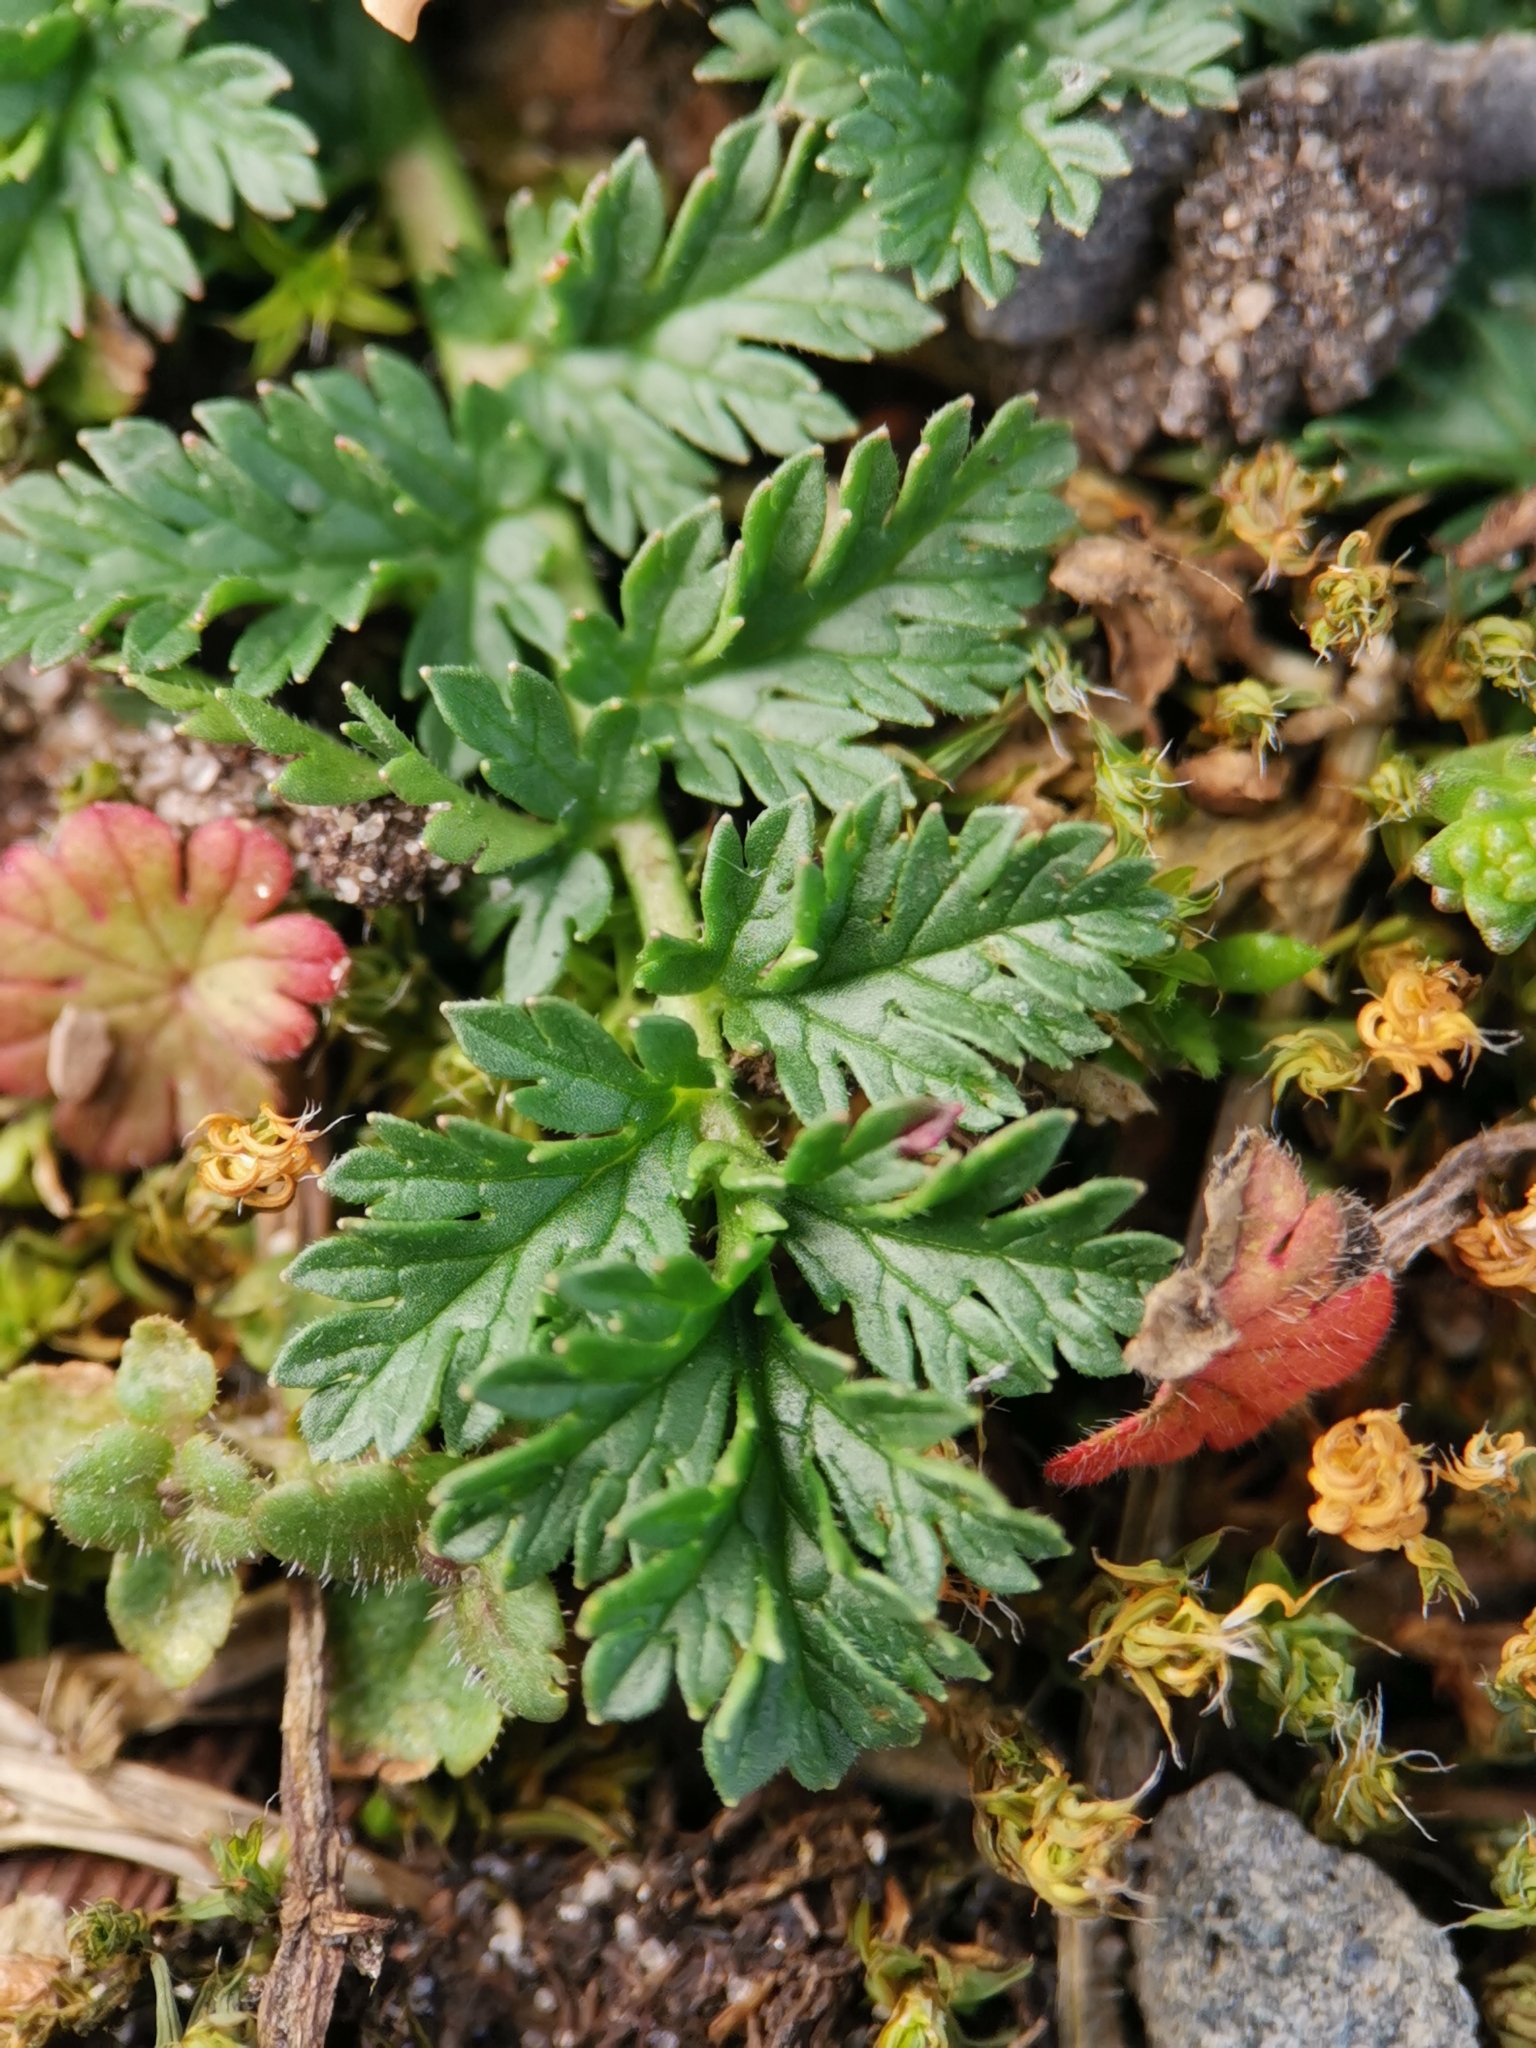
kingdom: Plantae
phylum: Tracheophyta
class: Magnoliopsida
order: Geraniales
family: Geraniaceae
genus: Erodium
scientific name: Erodium cicutarium
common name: Common stork's-bill
